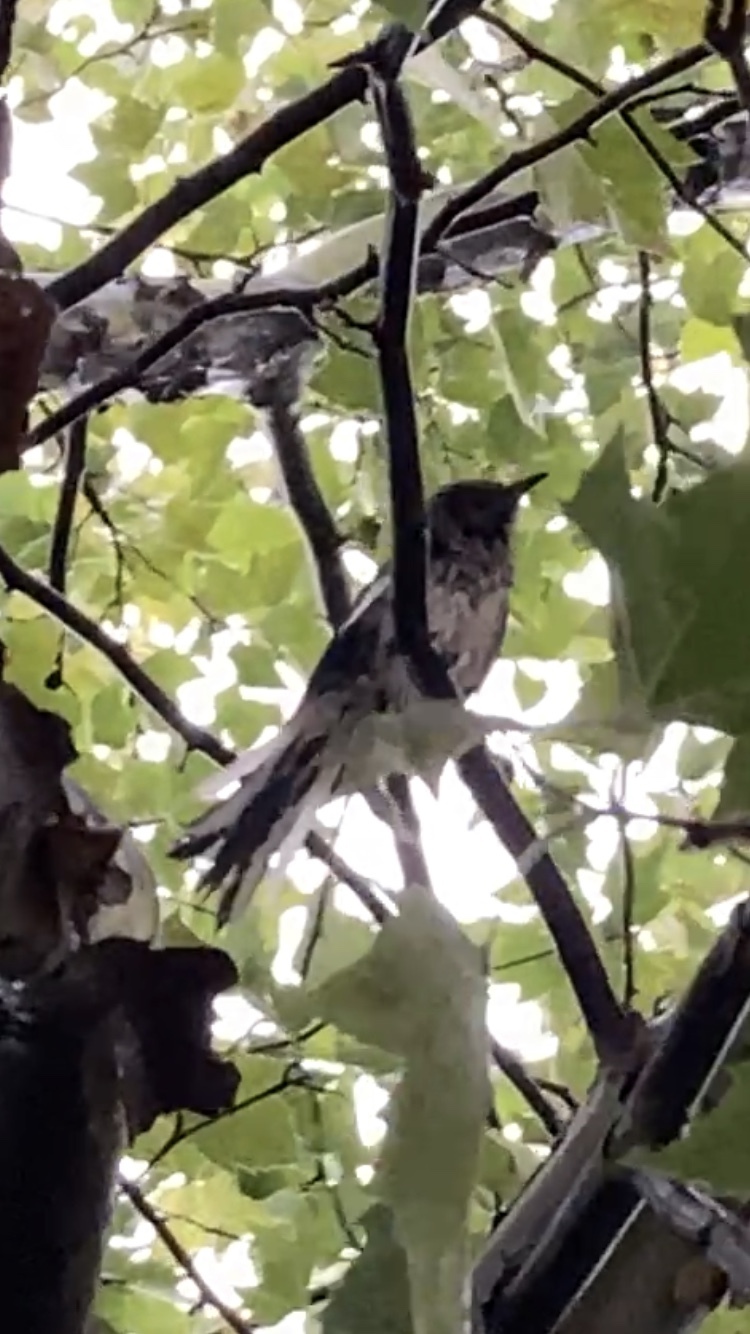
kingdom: Animalia
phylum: Chordata
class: Aves
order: Passeriformes
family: Mimidae
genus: Mimus
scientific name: Mimus polyglottos
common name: Northern mockingbird
